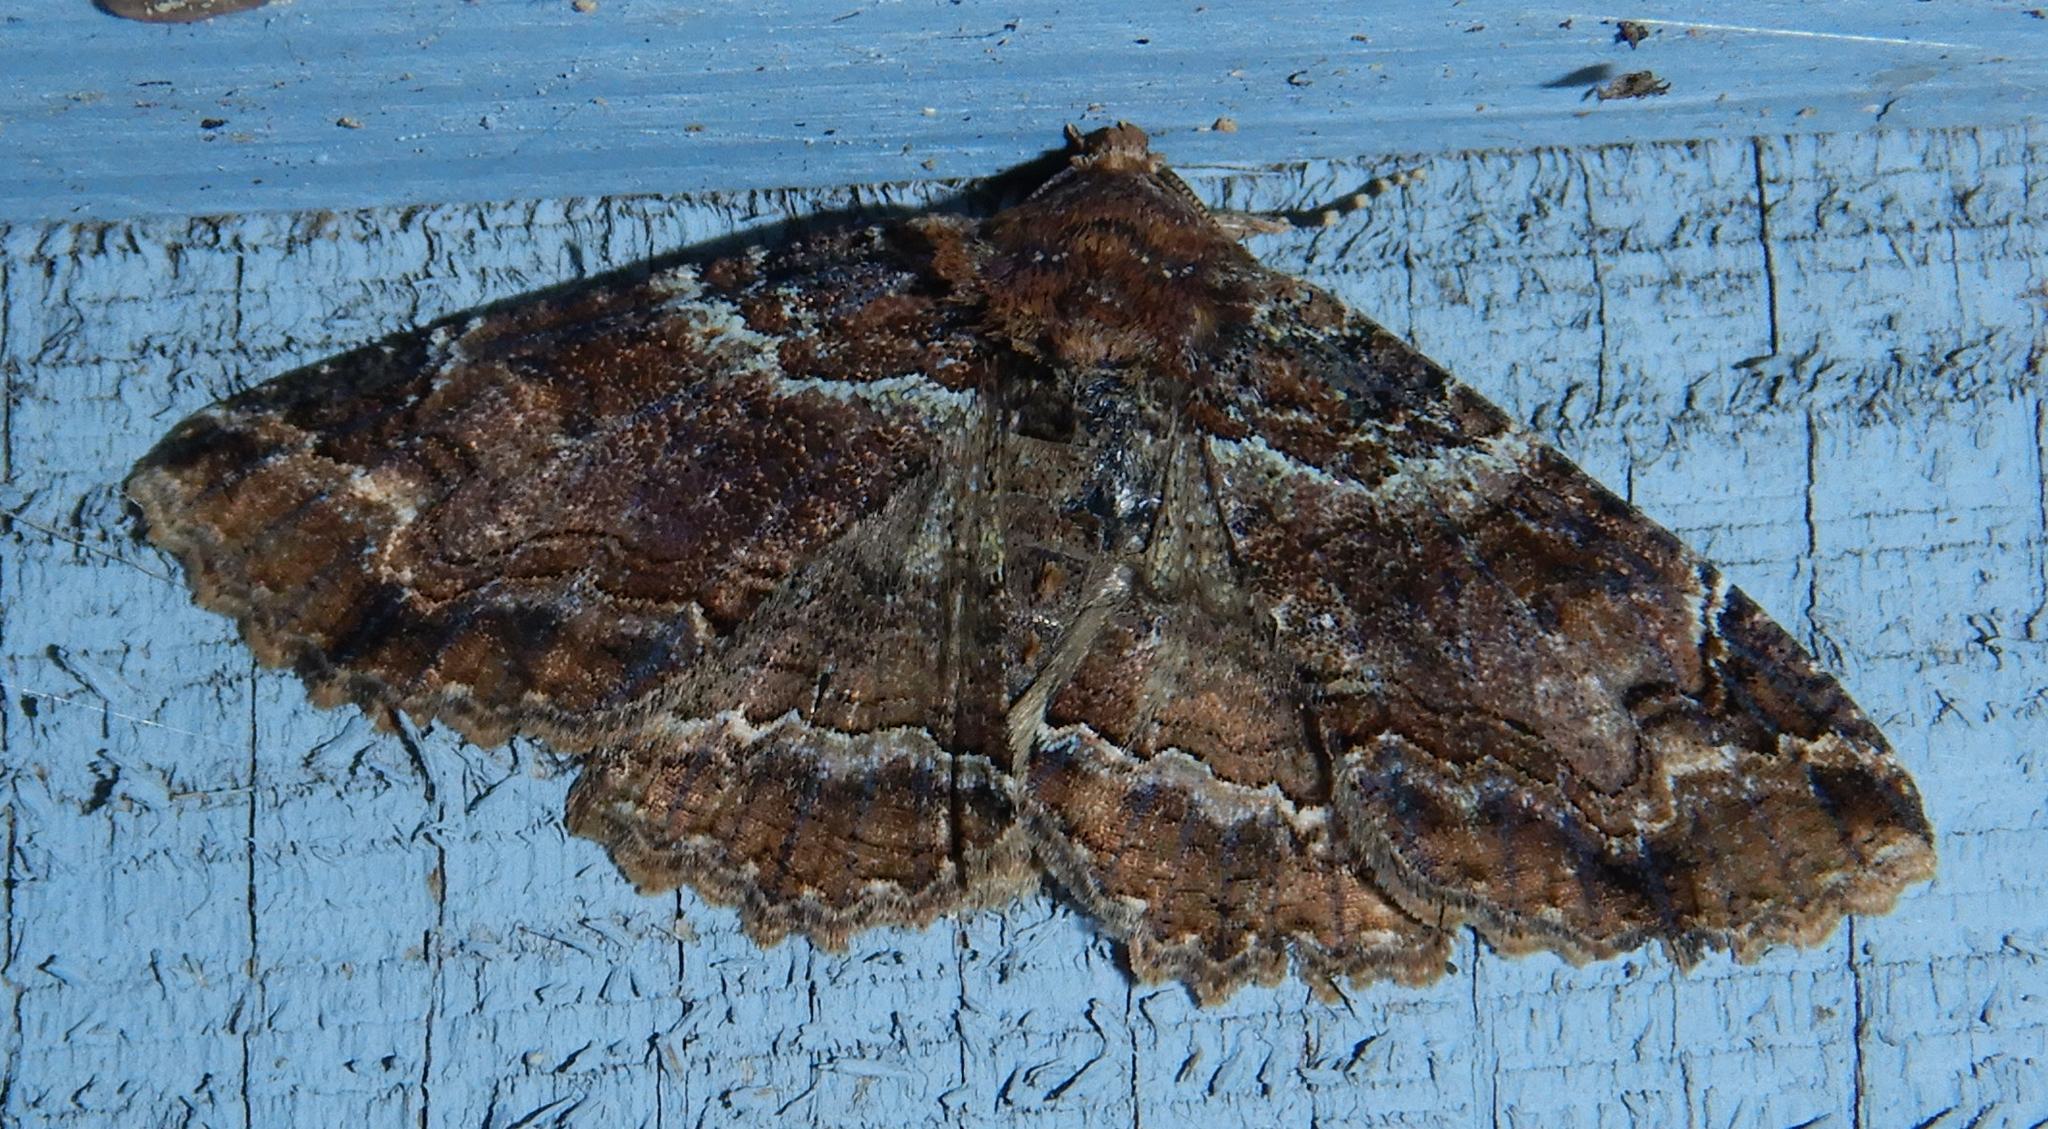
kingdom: Animalia
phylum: Arthropoda
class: Insecta
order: Lepidoptera
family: Erebidae
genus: Zale
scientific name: Zale minerea
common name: Colorful zale moth
